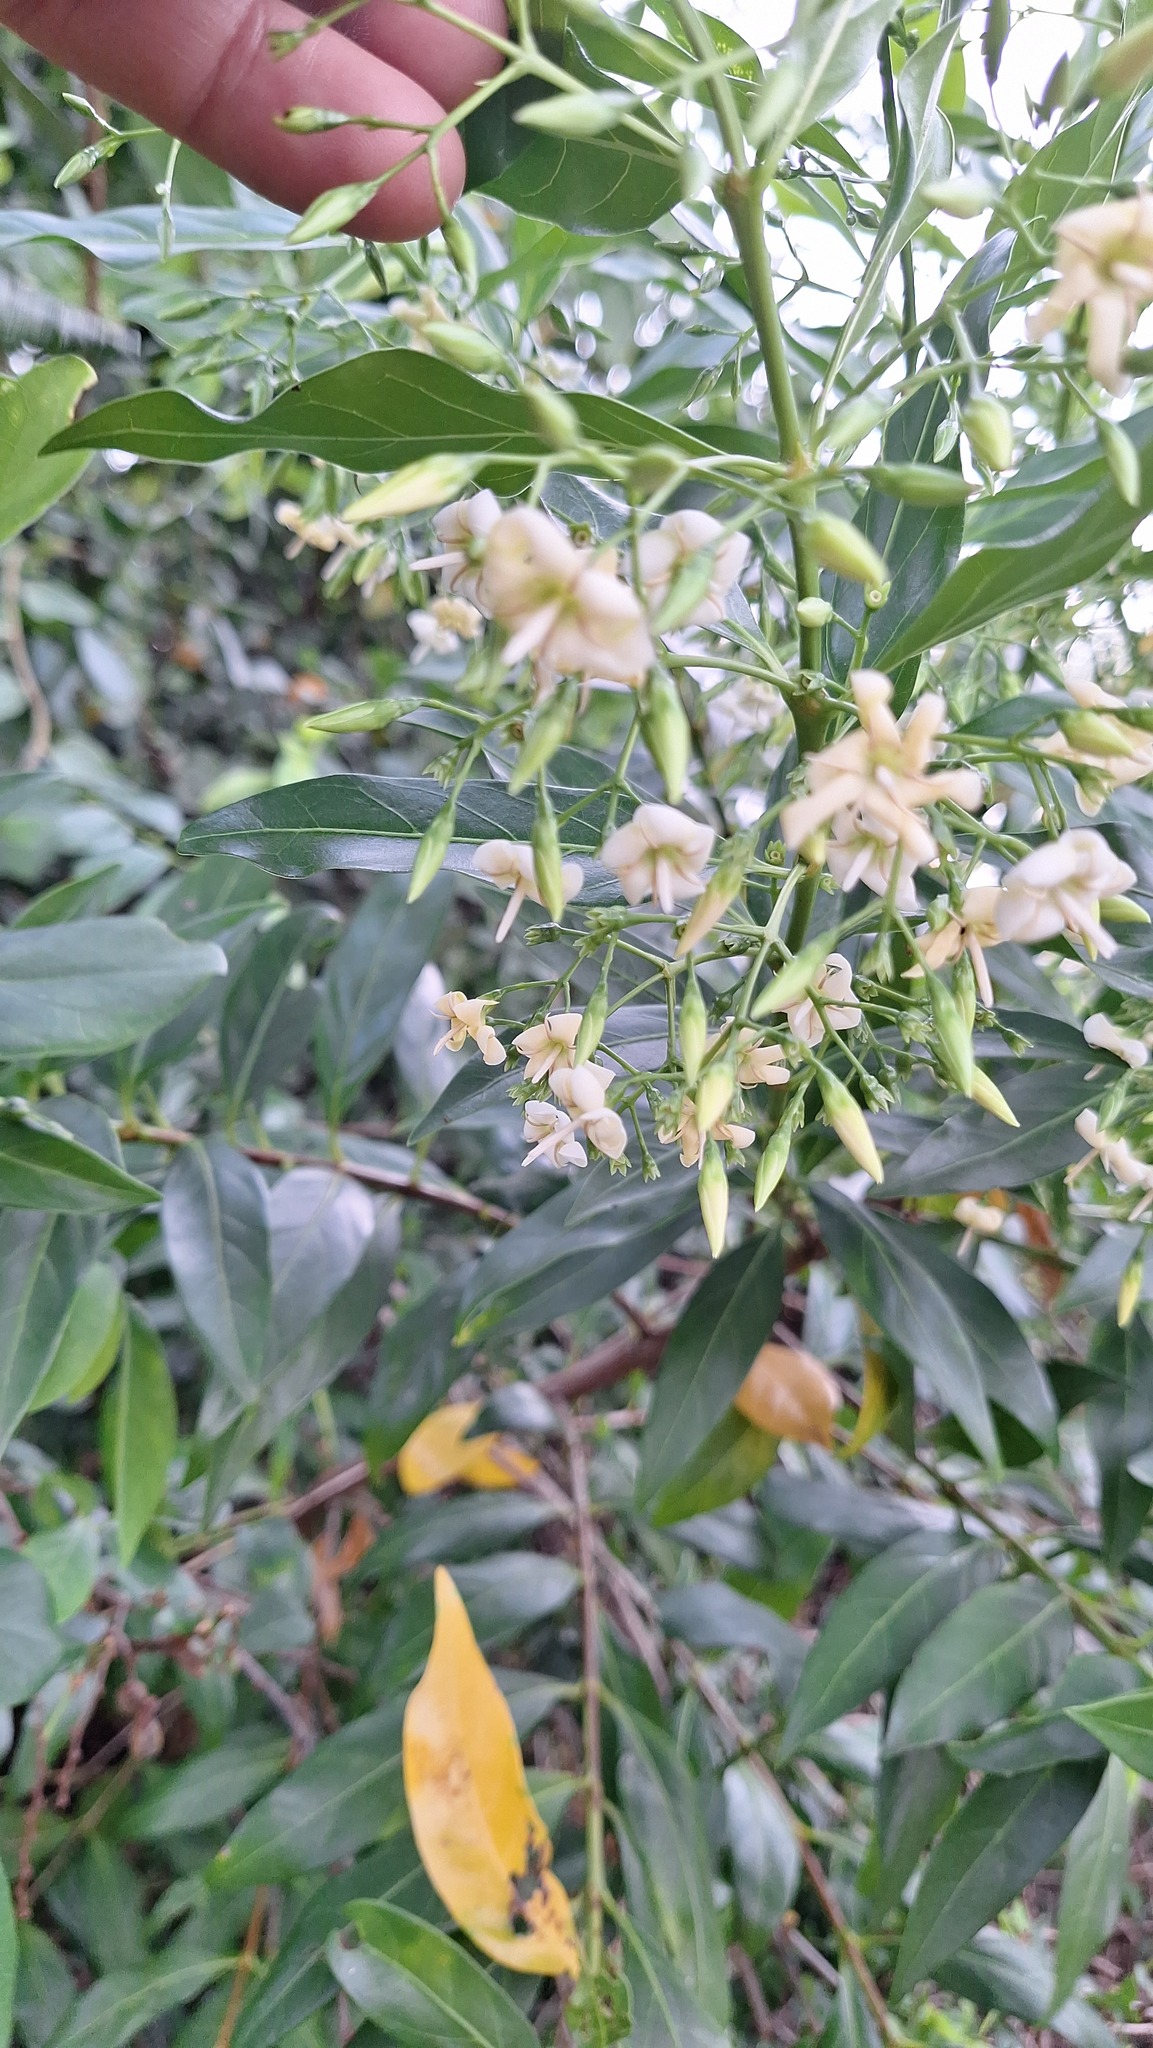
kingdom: Plantae
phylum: Tracheophyta
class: Magnoliopsida
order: Gentianales
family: Rubiaceae
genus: Kraussia
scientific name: Kraussia floribunda
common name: Rhino-coffee
